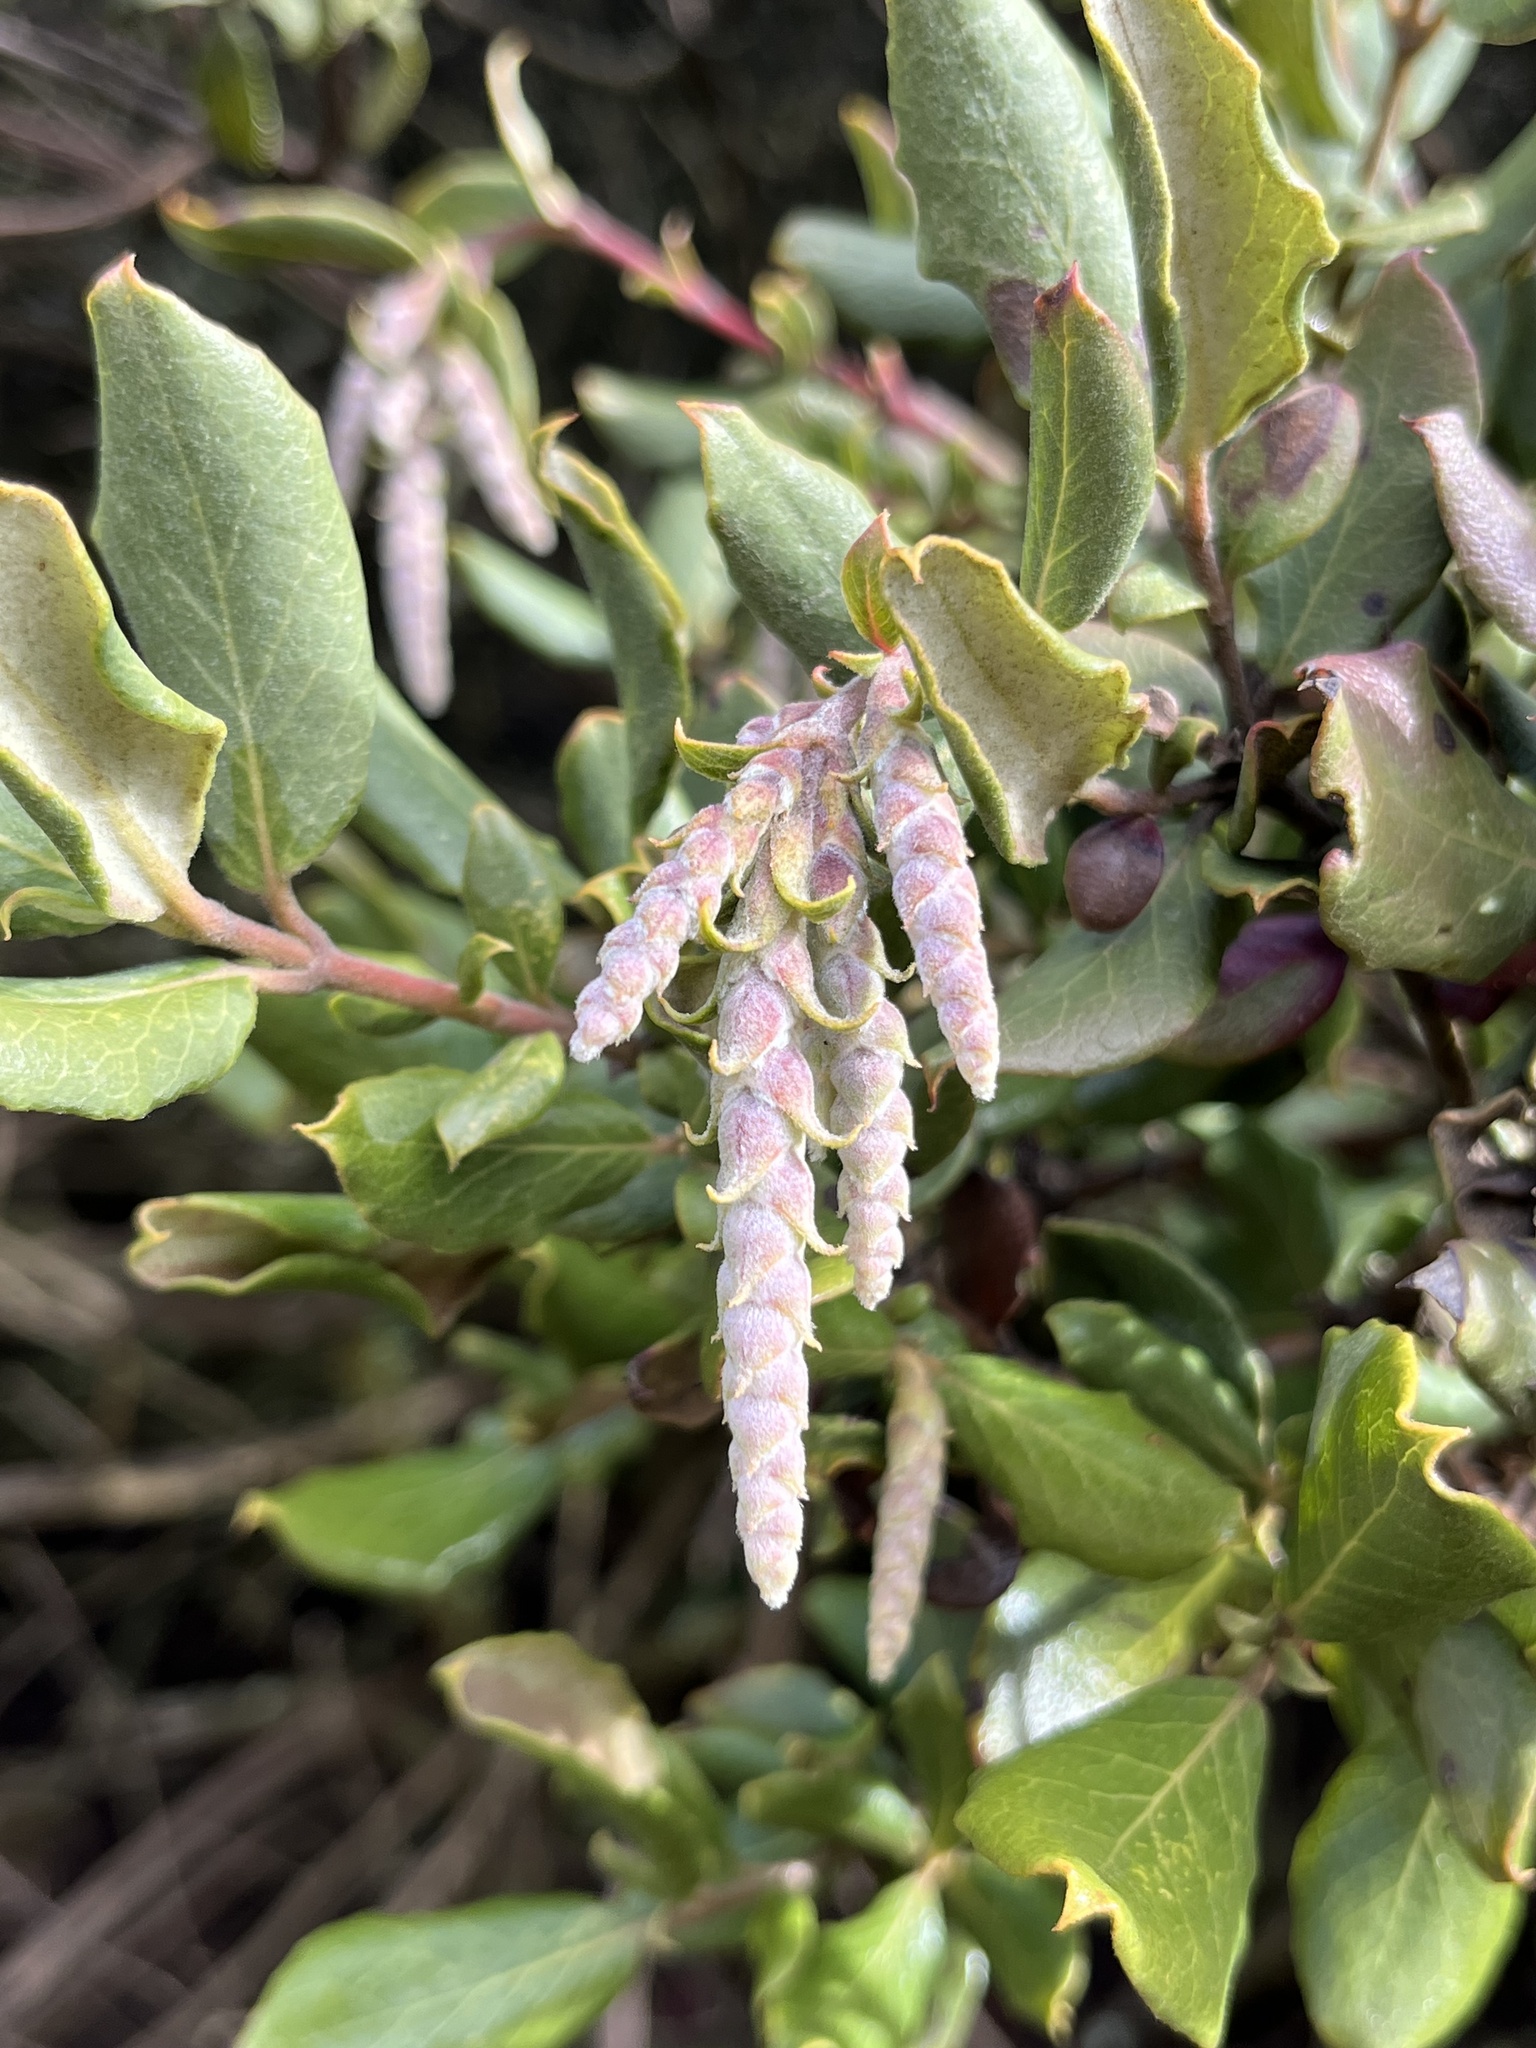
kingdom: Plantae
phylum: Tracheophyta
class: Magnoliopsida
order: Garryales
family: Garryaceae
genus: Garrya
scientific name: Garrya veatchii
